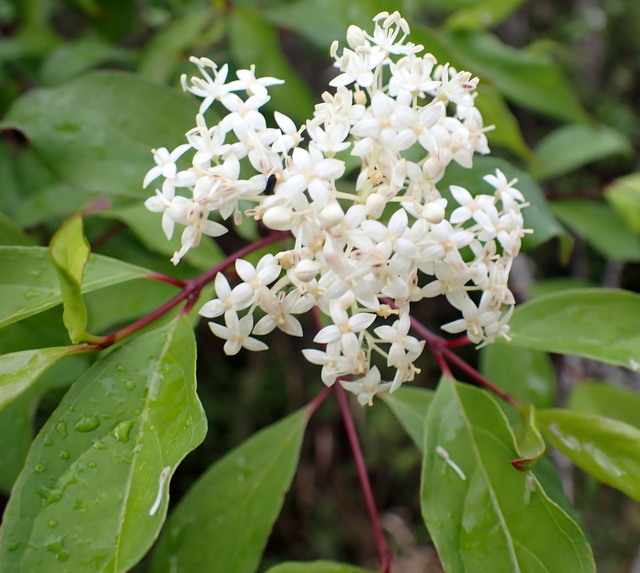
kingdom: Plantae
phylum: Tracheophyta
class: Magnoliopsida
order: Cornales
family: Cornaceae
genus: Cornus
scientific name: Cornus foemina
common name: Swamp dogwood
